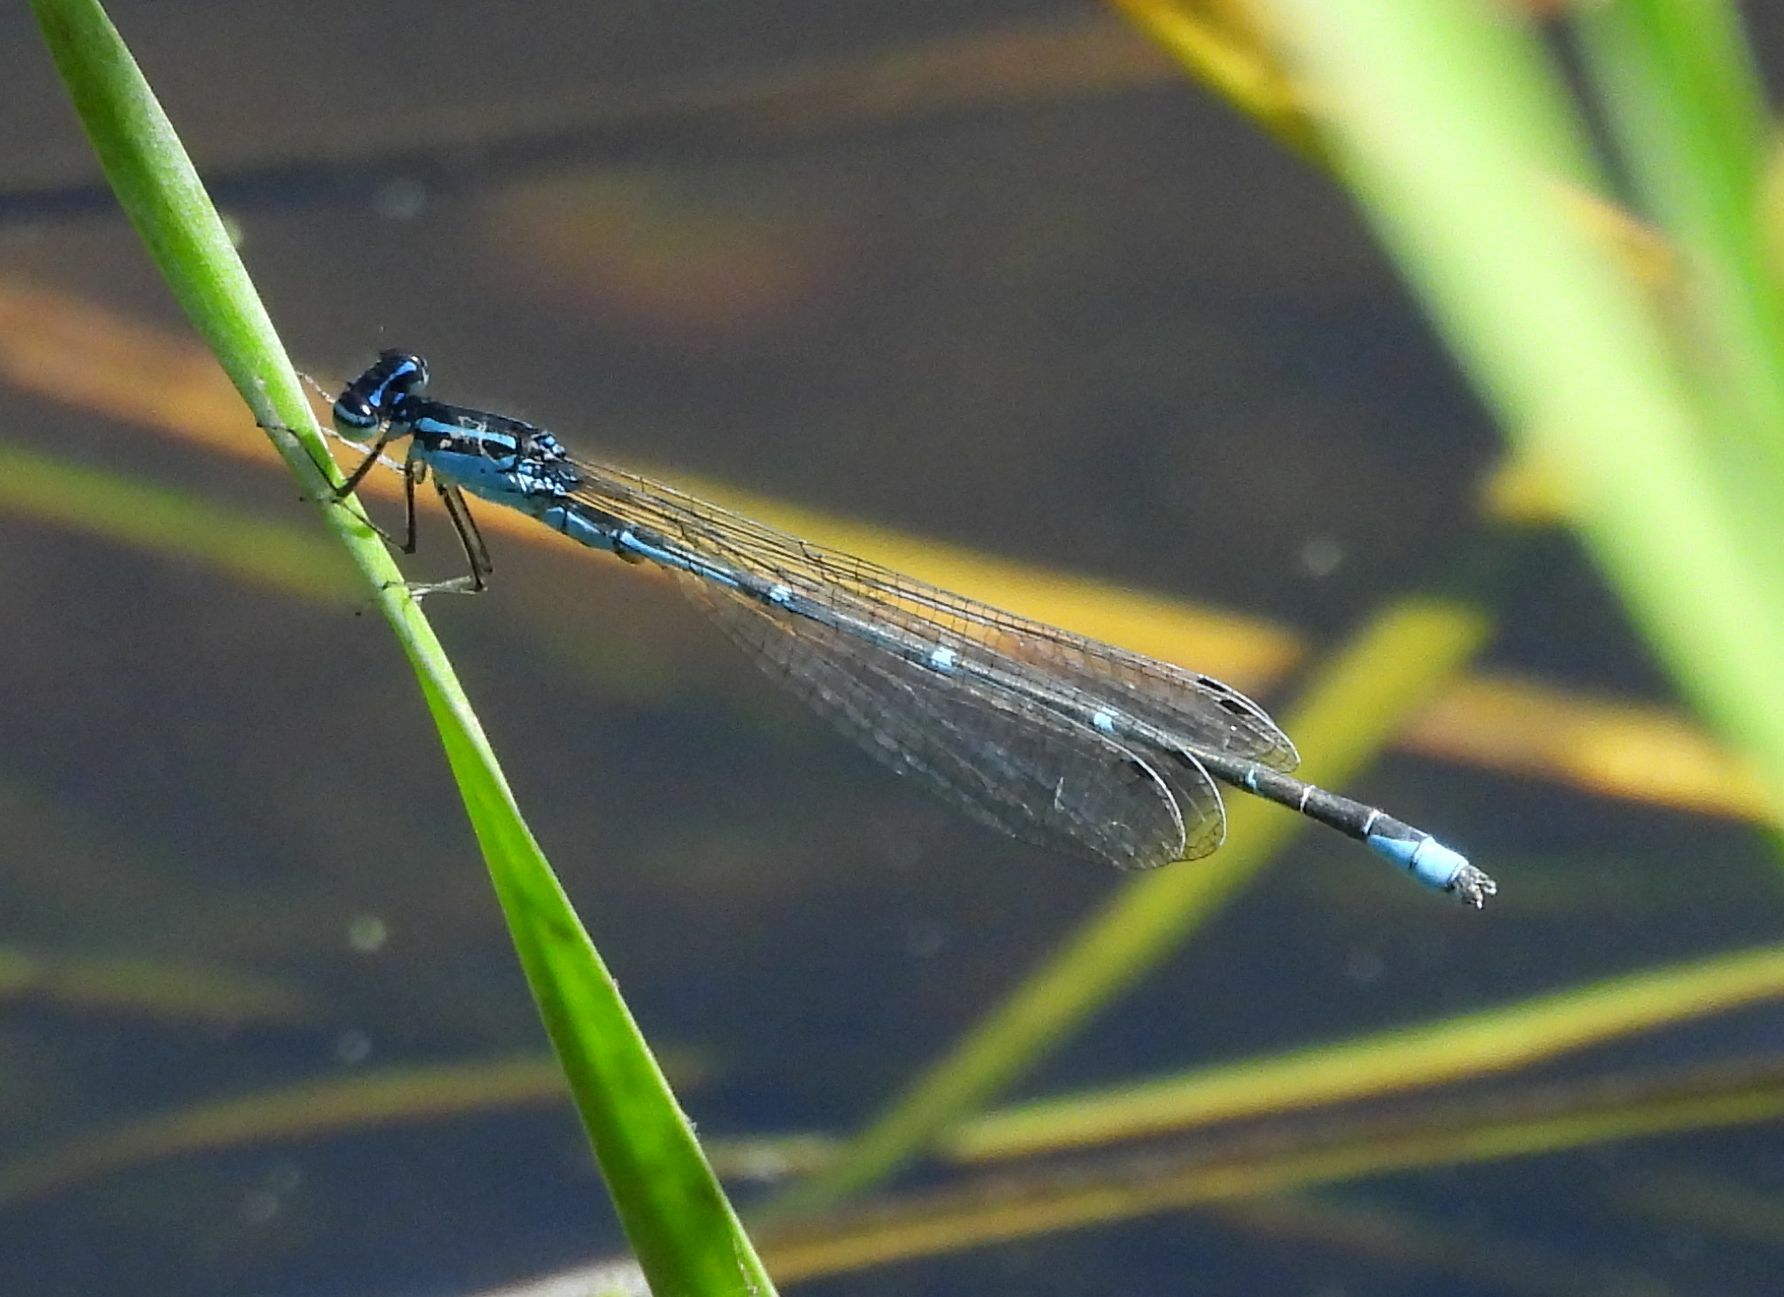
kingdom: Animalia
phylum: Arthropoda
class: Insecta
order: Odonata
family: Coenagrionidae
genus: Enallagma
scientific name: Enallagma exsulans
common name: Stream bluet
